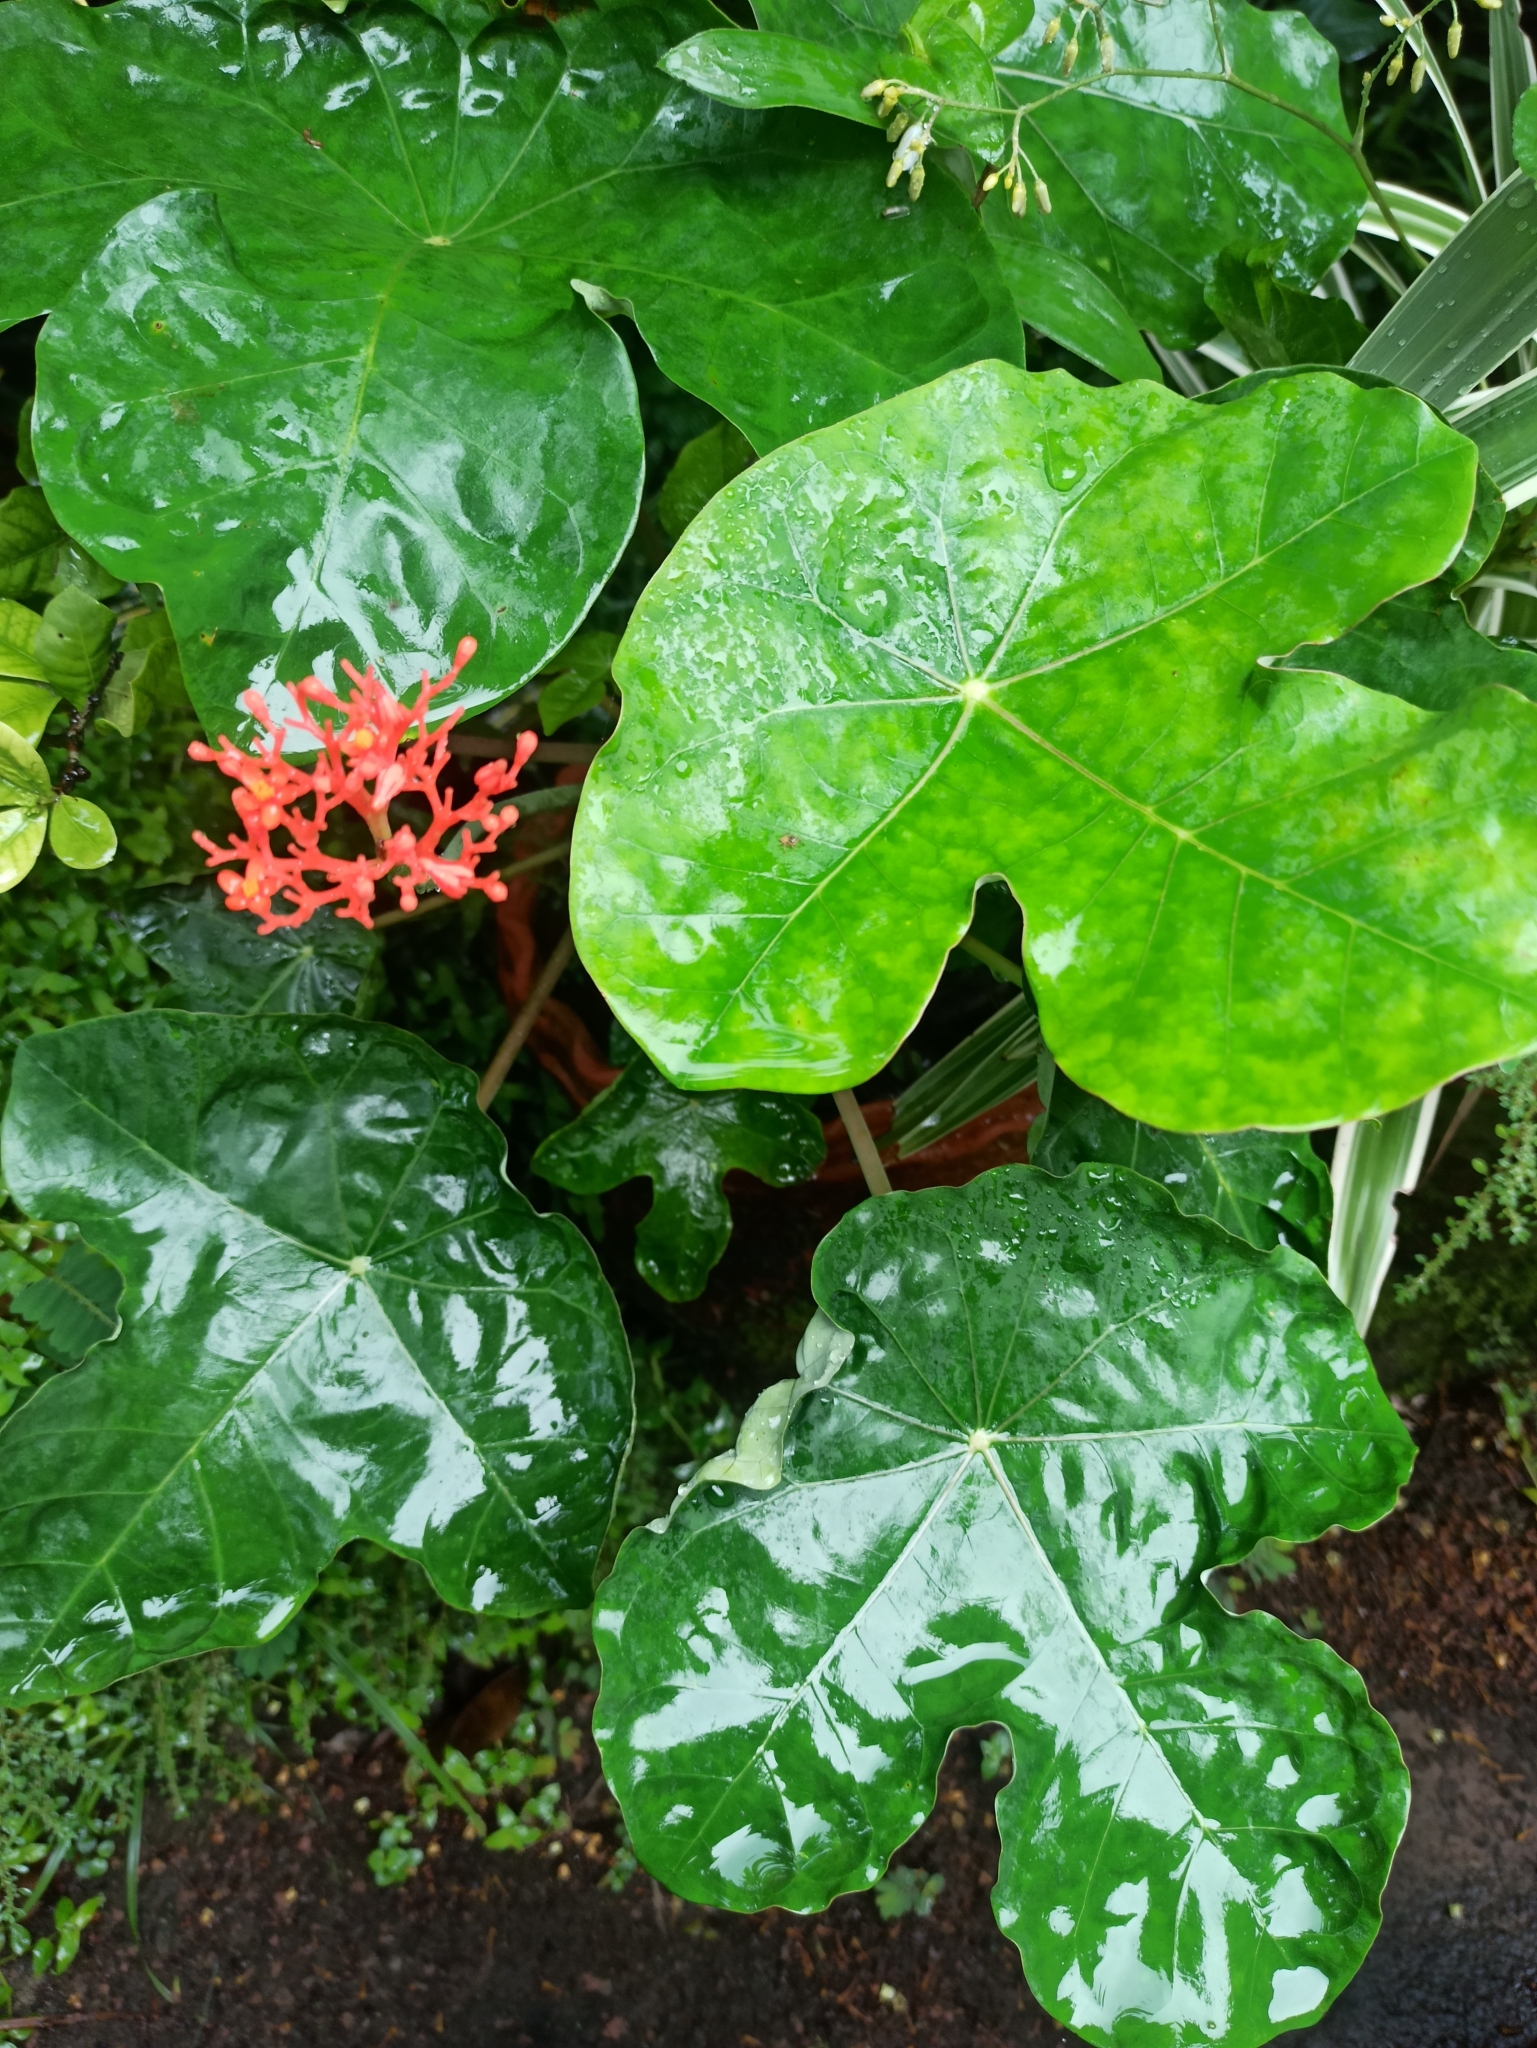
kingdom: Plantae
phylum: Tracheophyta
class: Magnoliopsida
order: Malpighiales
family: Euphorbiaceae
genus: Jatropha
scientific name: Jatropha podagrica
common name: Gout stalk
